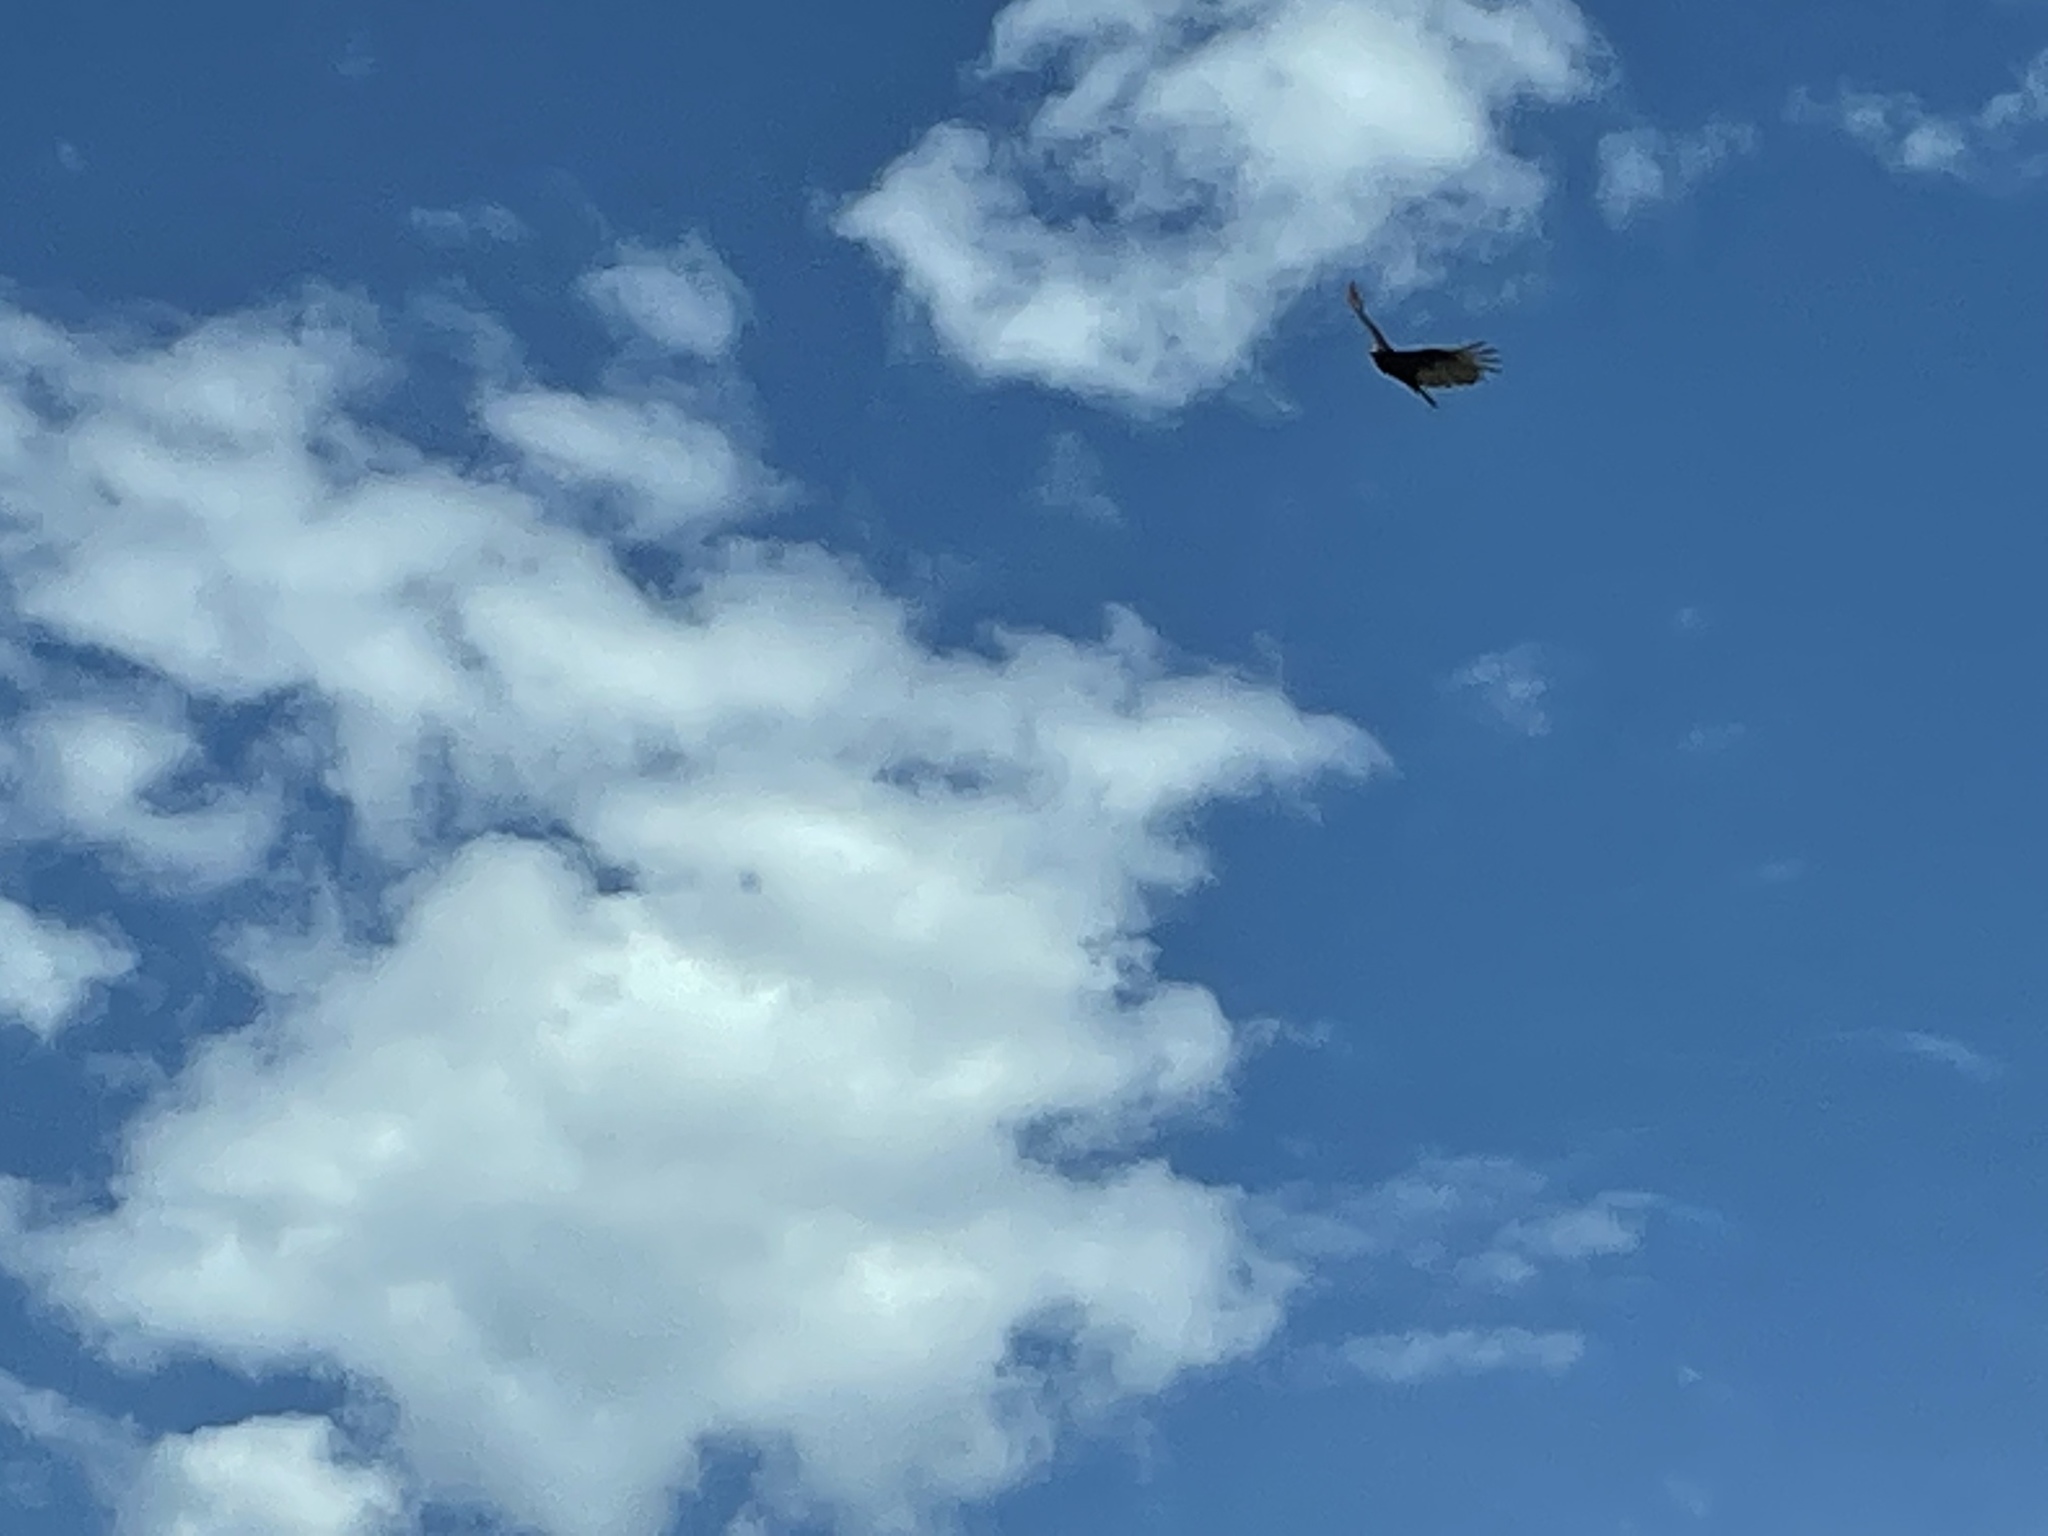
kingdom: Animalia
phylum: Chordata
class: Aves
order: Accipitriformes
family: Cathartidae
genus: Cathartes
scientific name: Cathartes aura
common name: Turkey vulture
